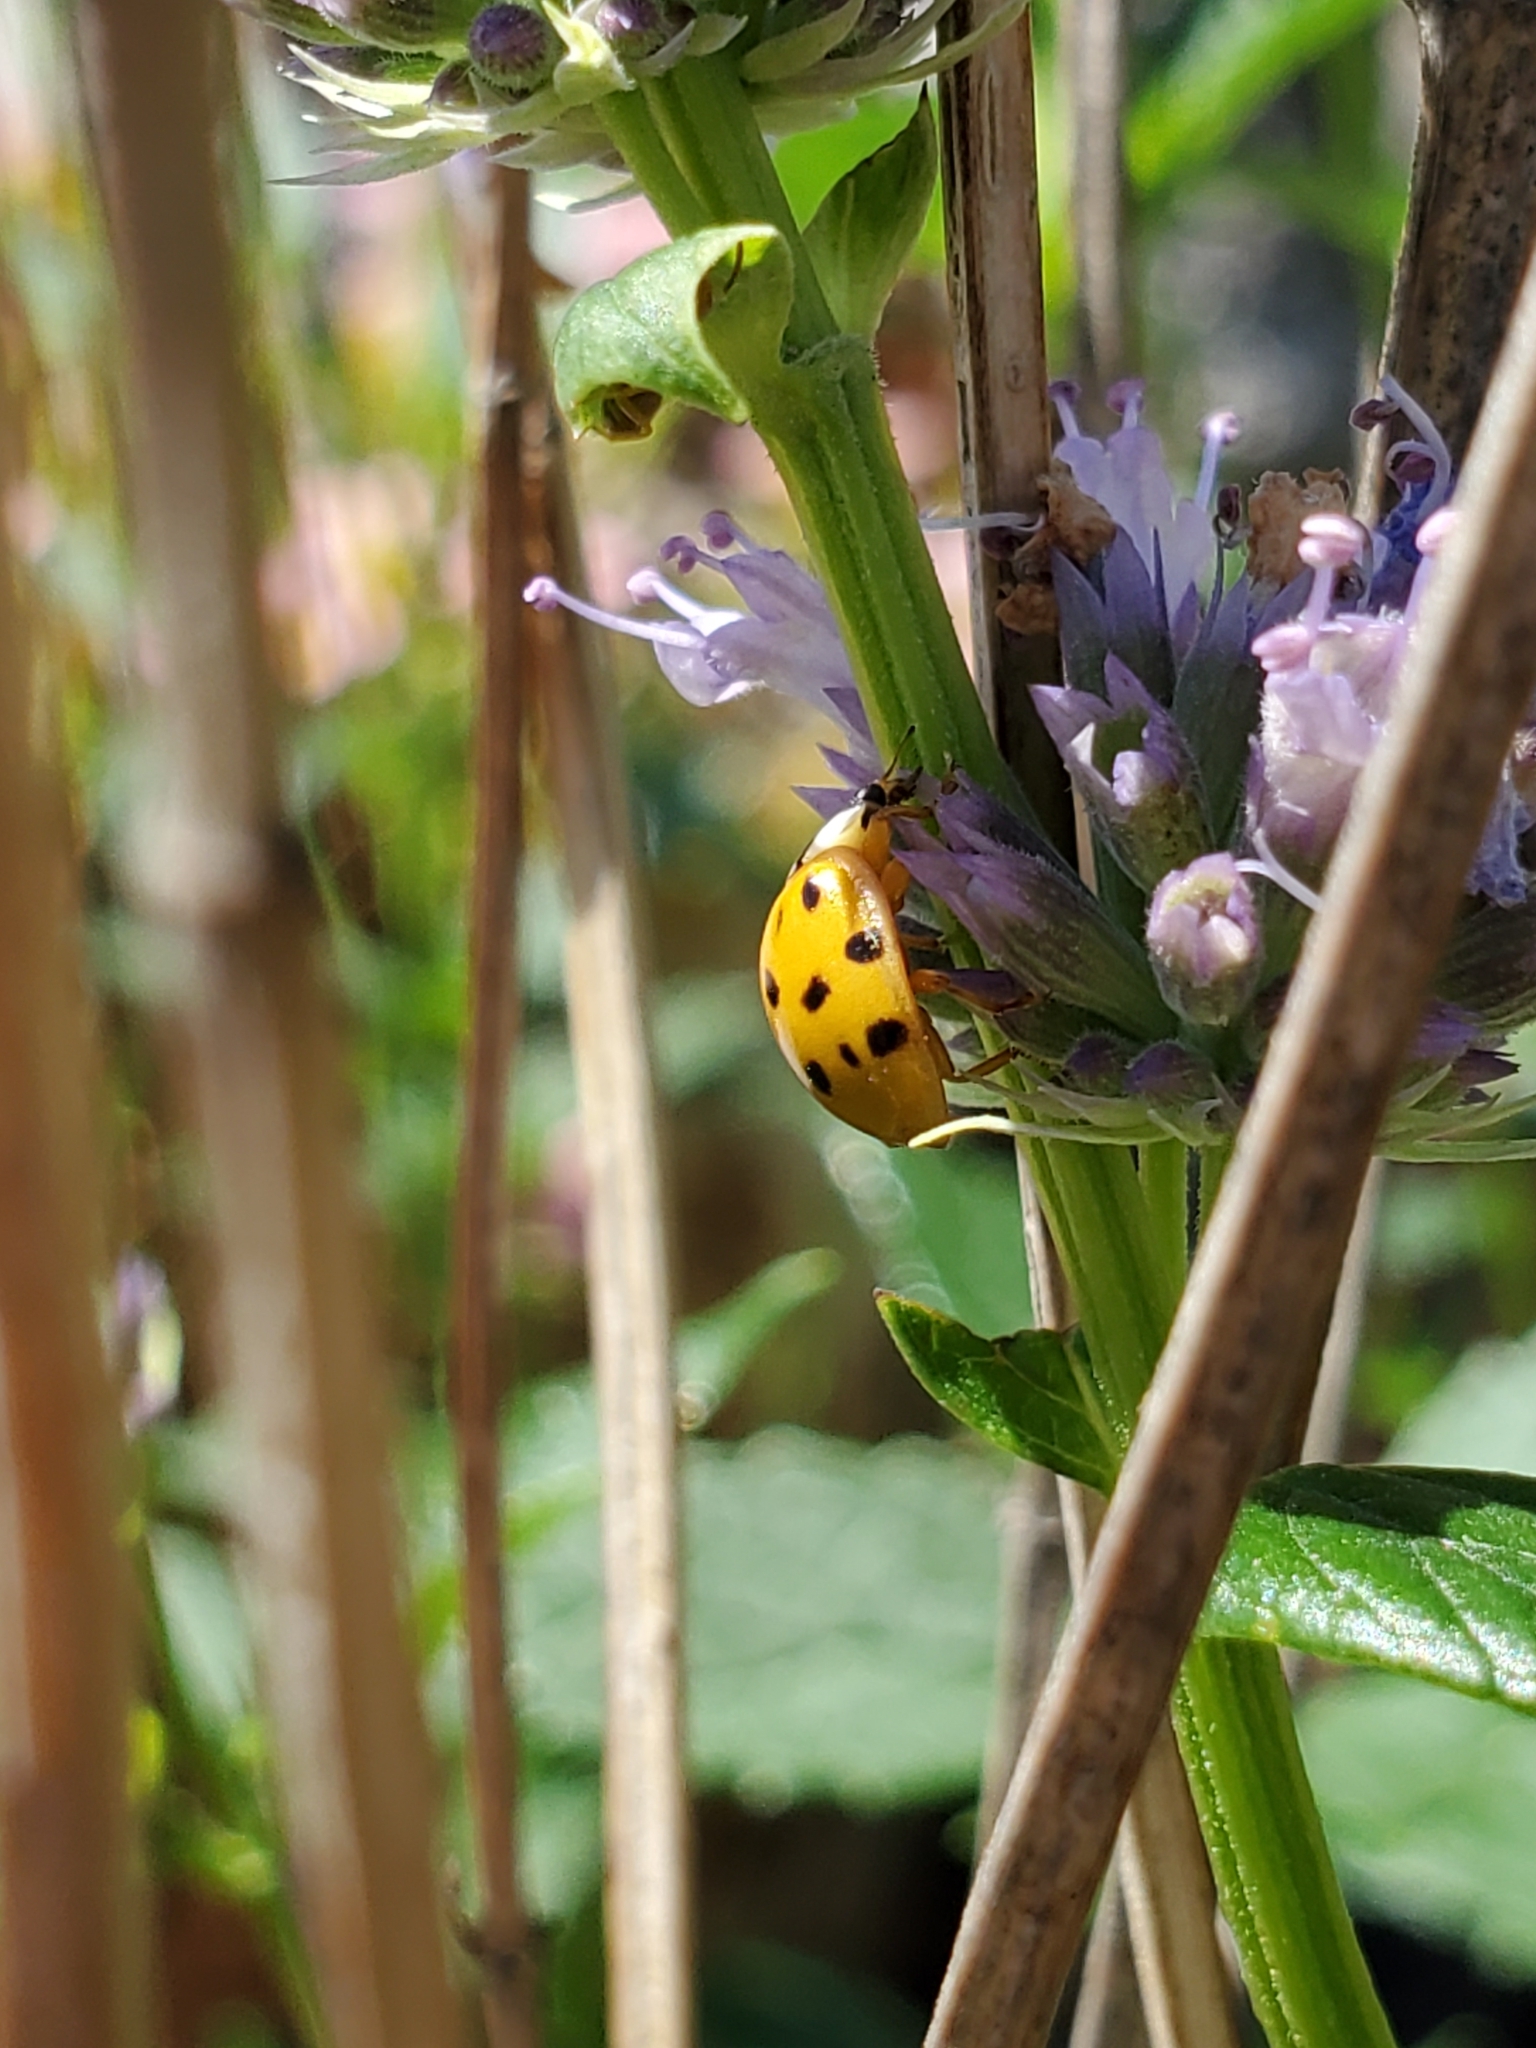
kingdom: Animalia
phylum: Arthropoda
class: Insecta
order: Coleoptera
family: Coccinellidae
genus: Harmonia
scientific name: Harmonia axyridis
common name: Harlequin ladybird
